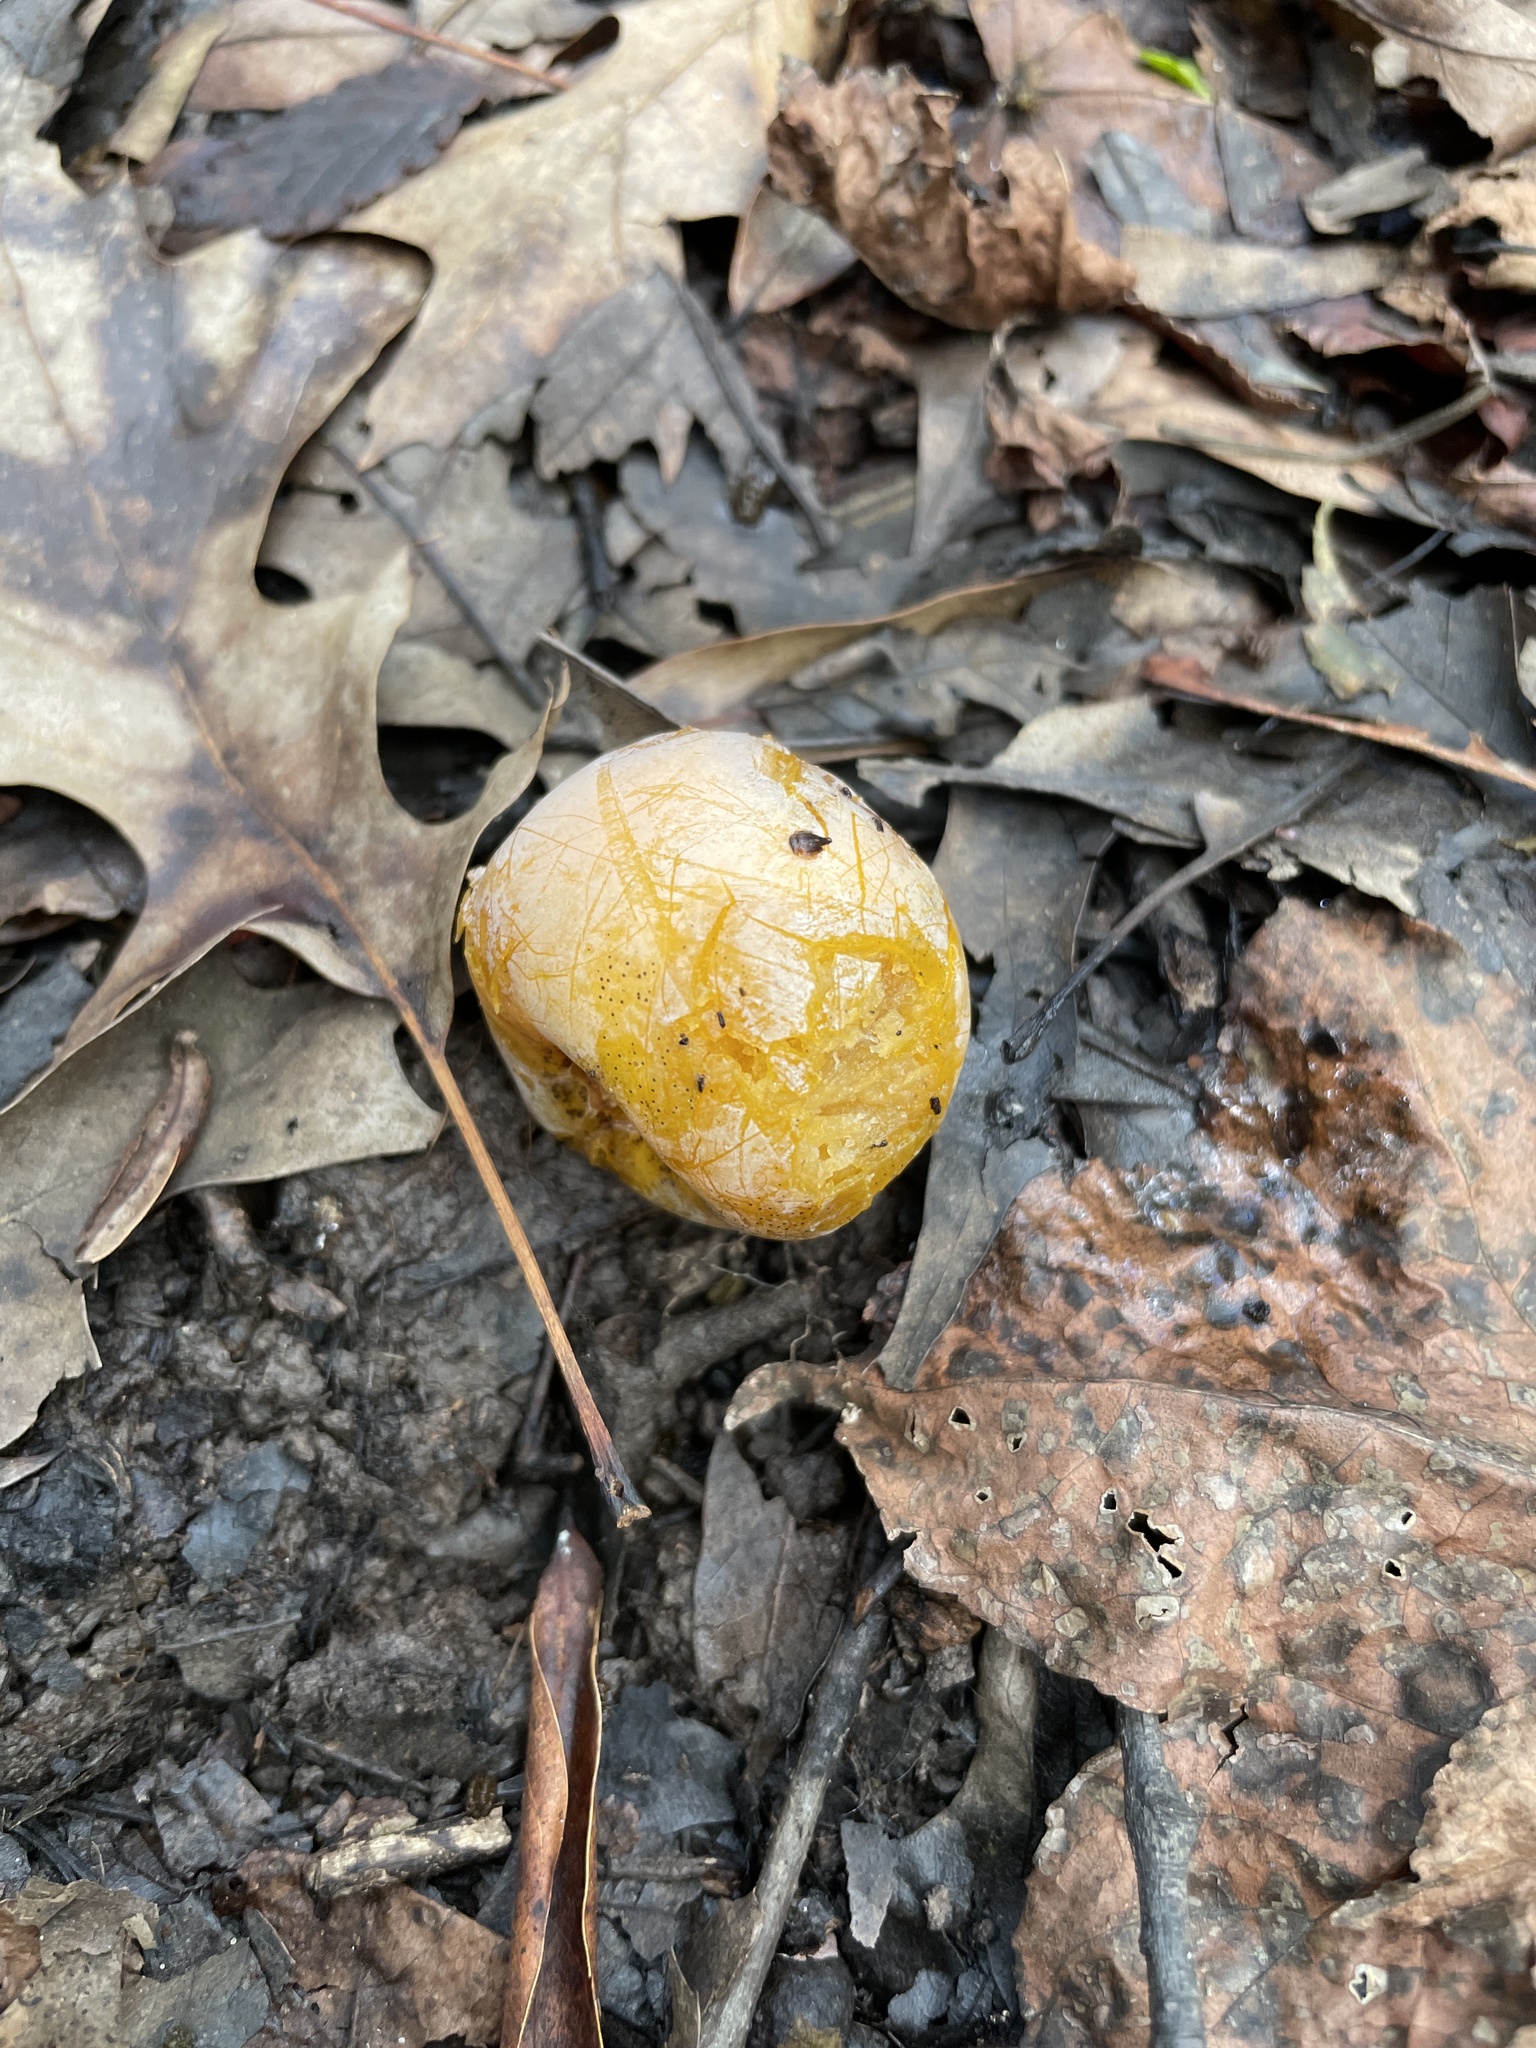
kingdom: Plantae
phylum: Tracheophyta
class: Magnoliopsida
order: Ericales
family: Ebenaceae
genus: Diospyros
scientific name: Diospyros virginiana
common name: Persimmon
